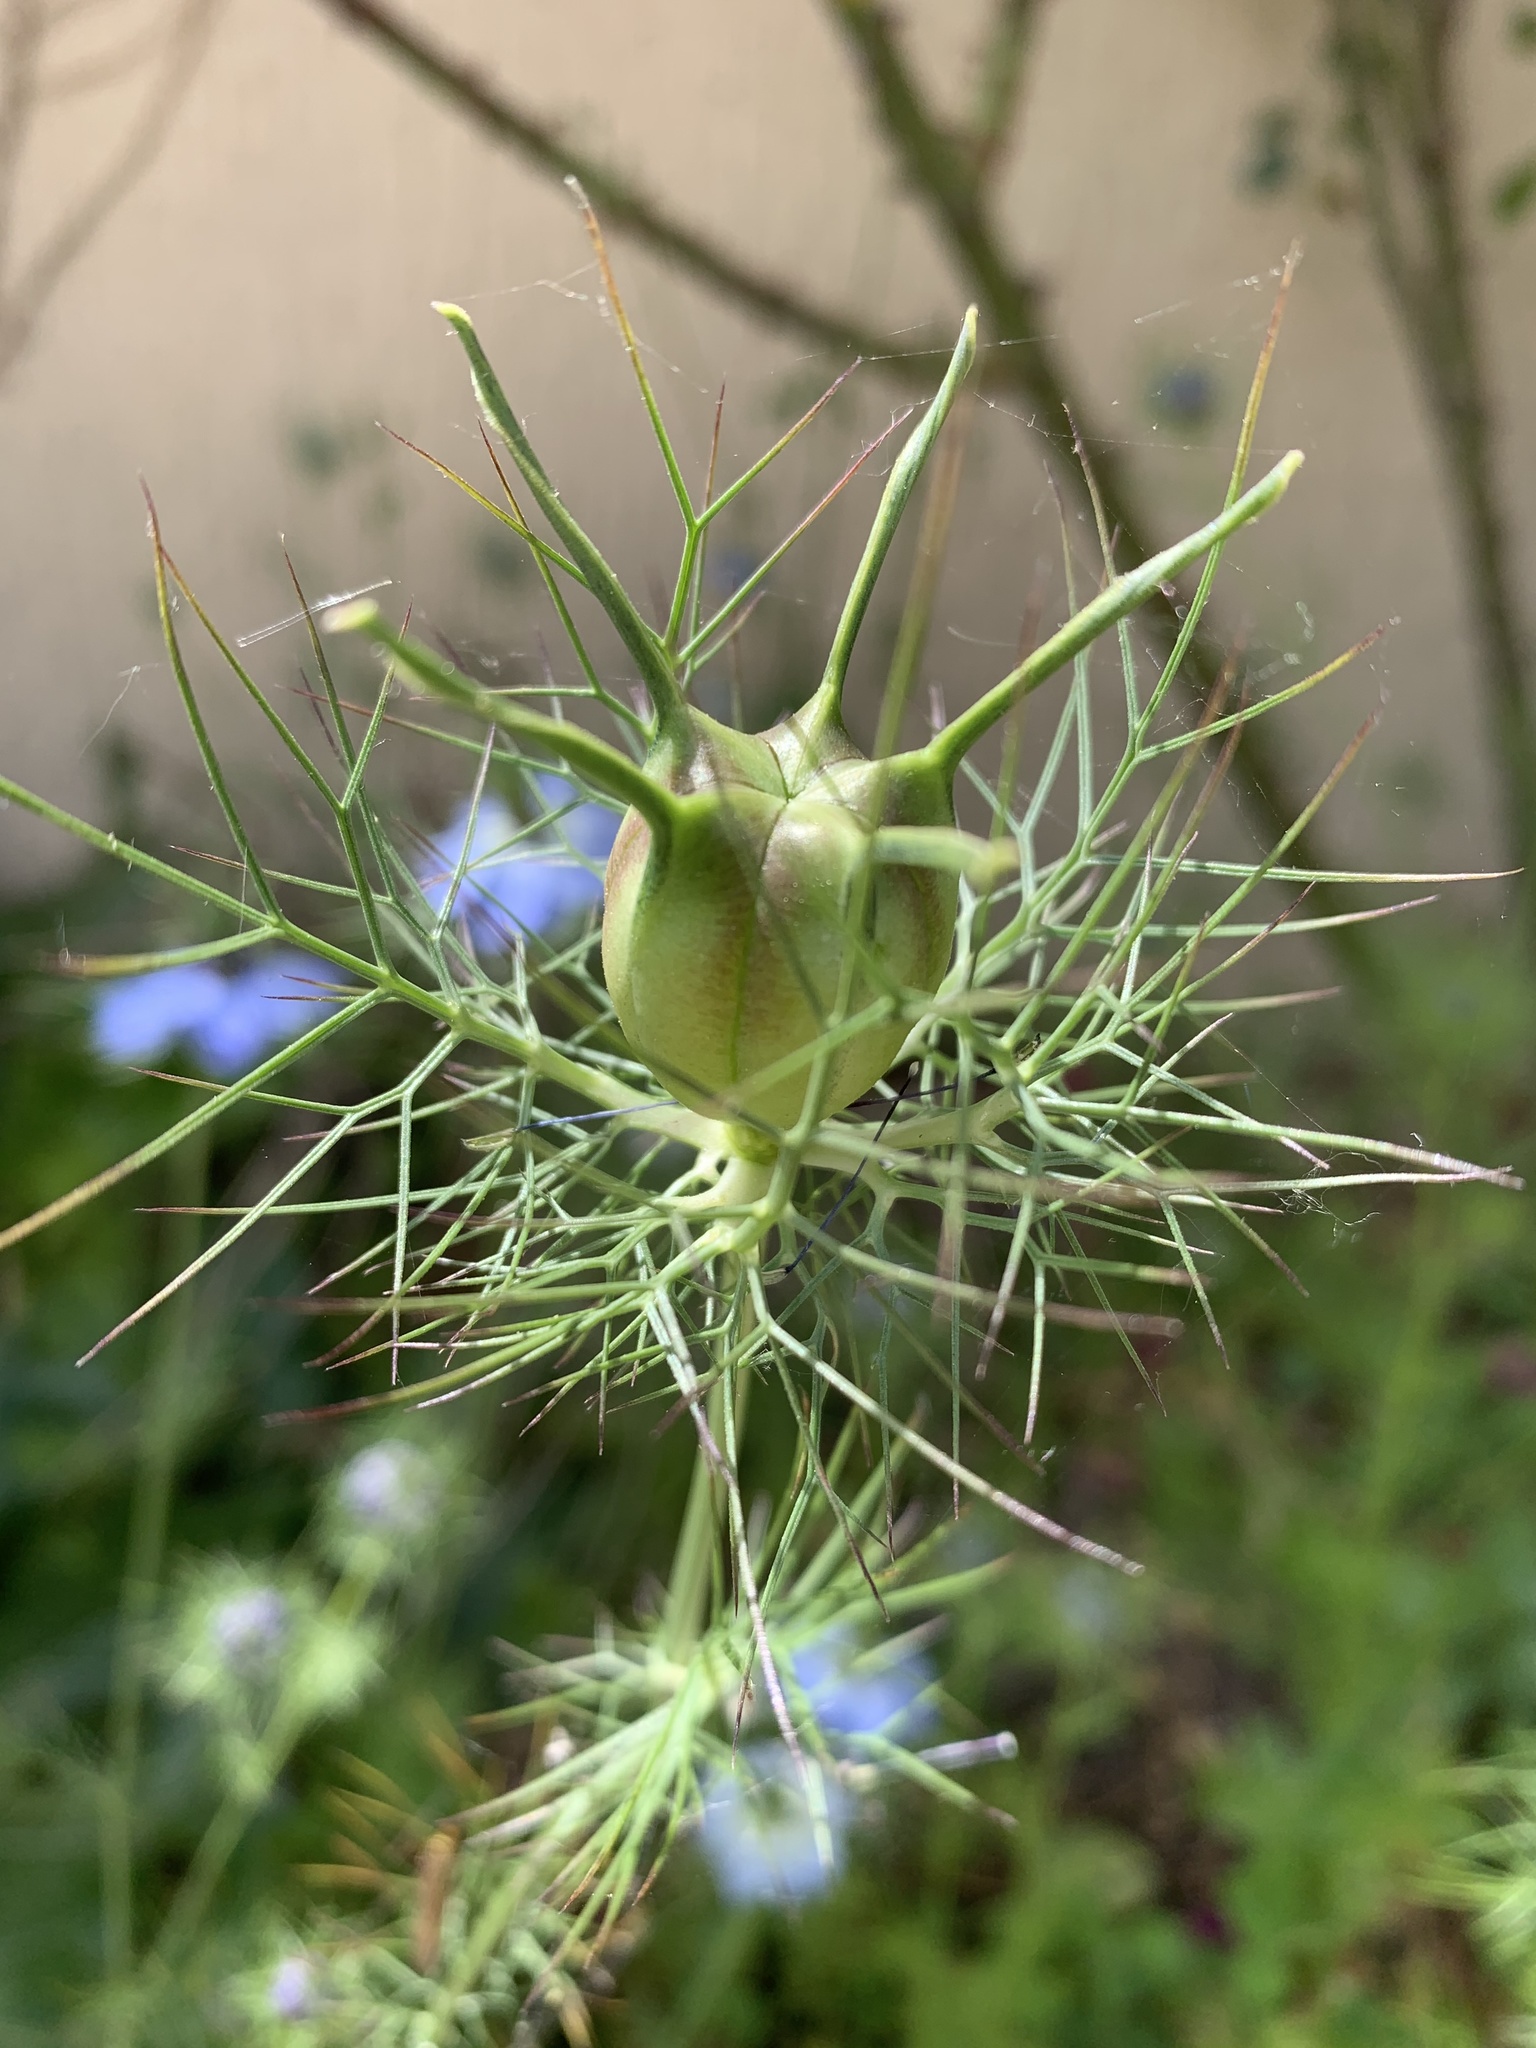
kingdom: Plantae
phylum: Tracheophyta
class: Magnoliopsida
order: Ranunculales
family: Ranunculaceae
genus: Nigella
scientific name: Nigella damascena
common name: Love-in-a-mist
